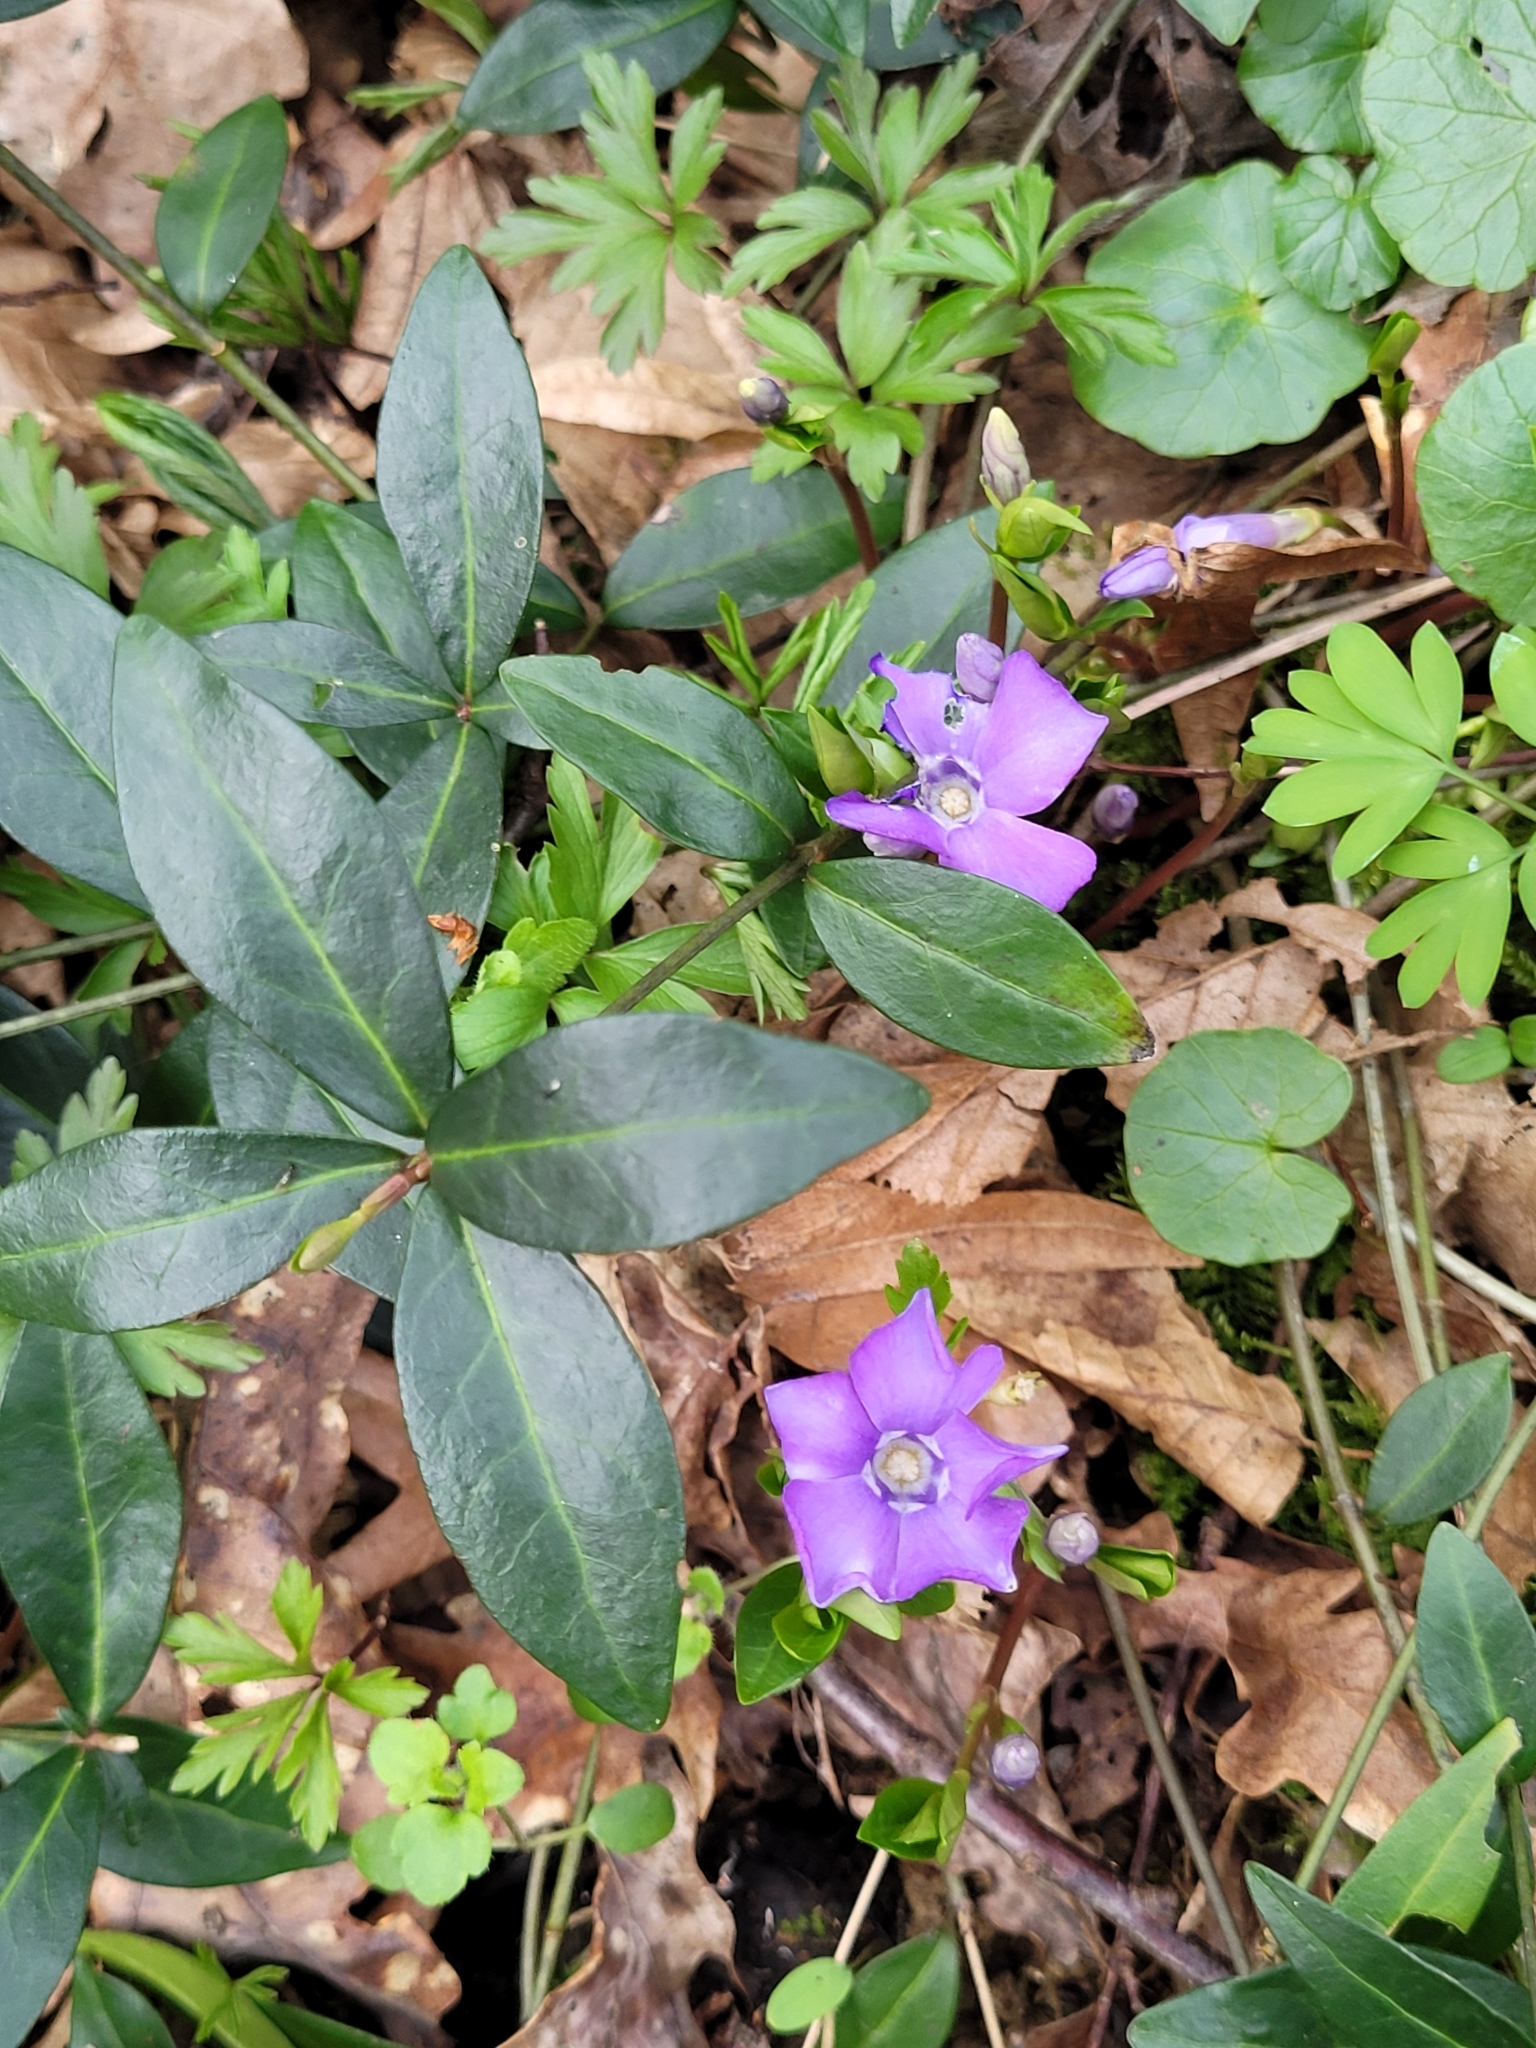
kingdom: Plantae
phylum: Tracheophyta
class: Magnoliopsida
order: Gentianales
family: Apocynaceae
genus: Vinca
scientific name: Vinca minor
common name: Lesser periwinkle
